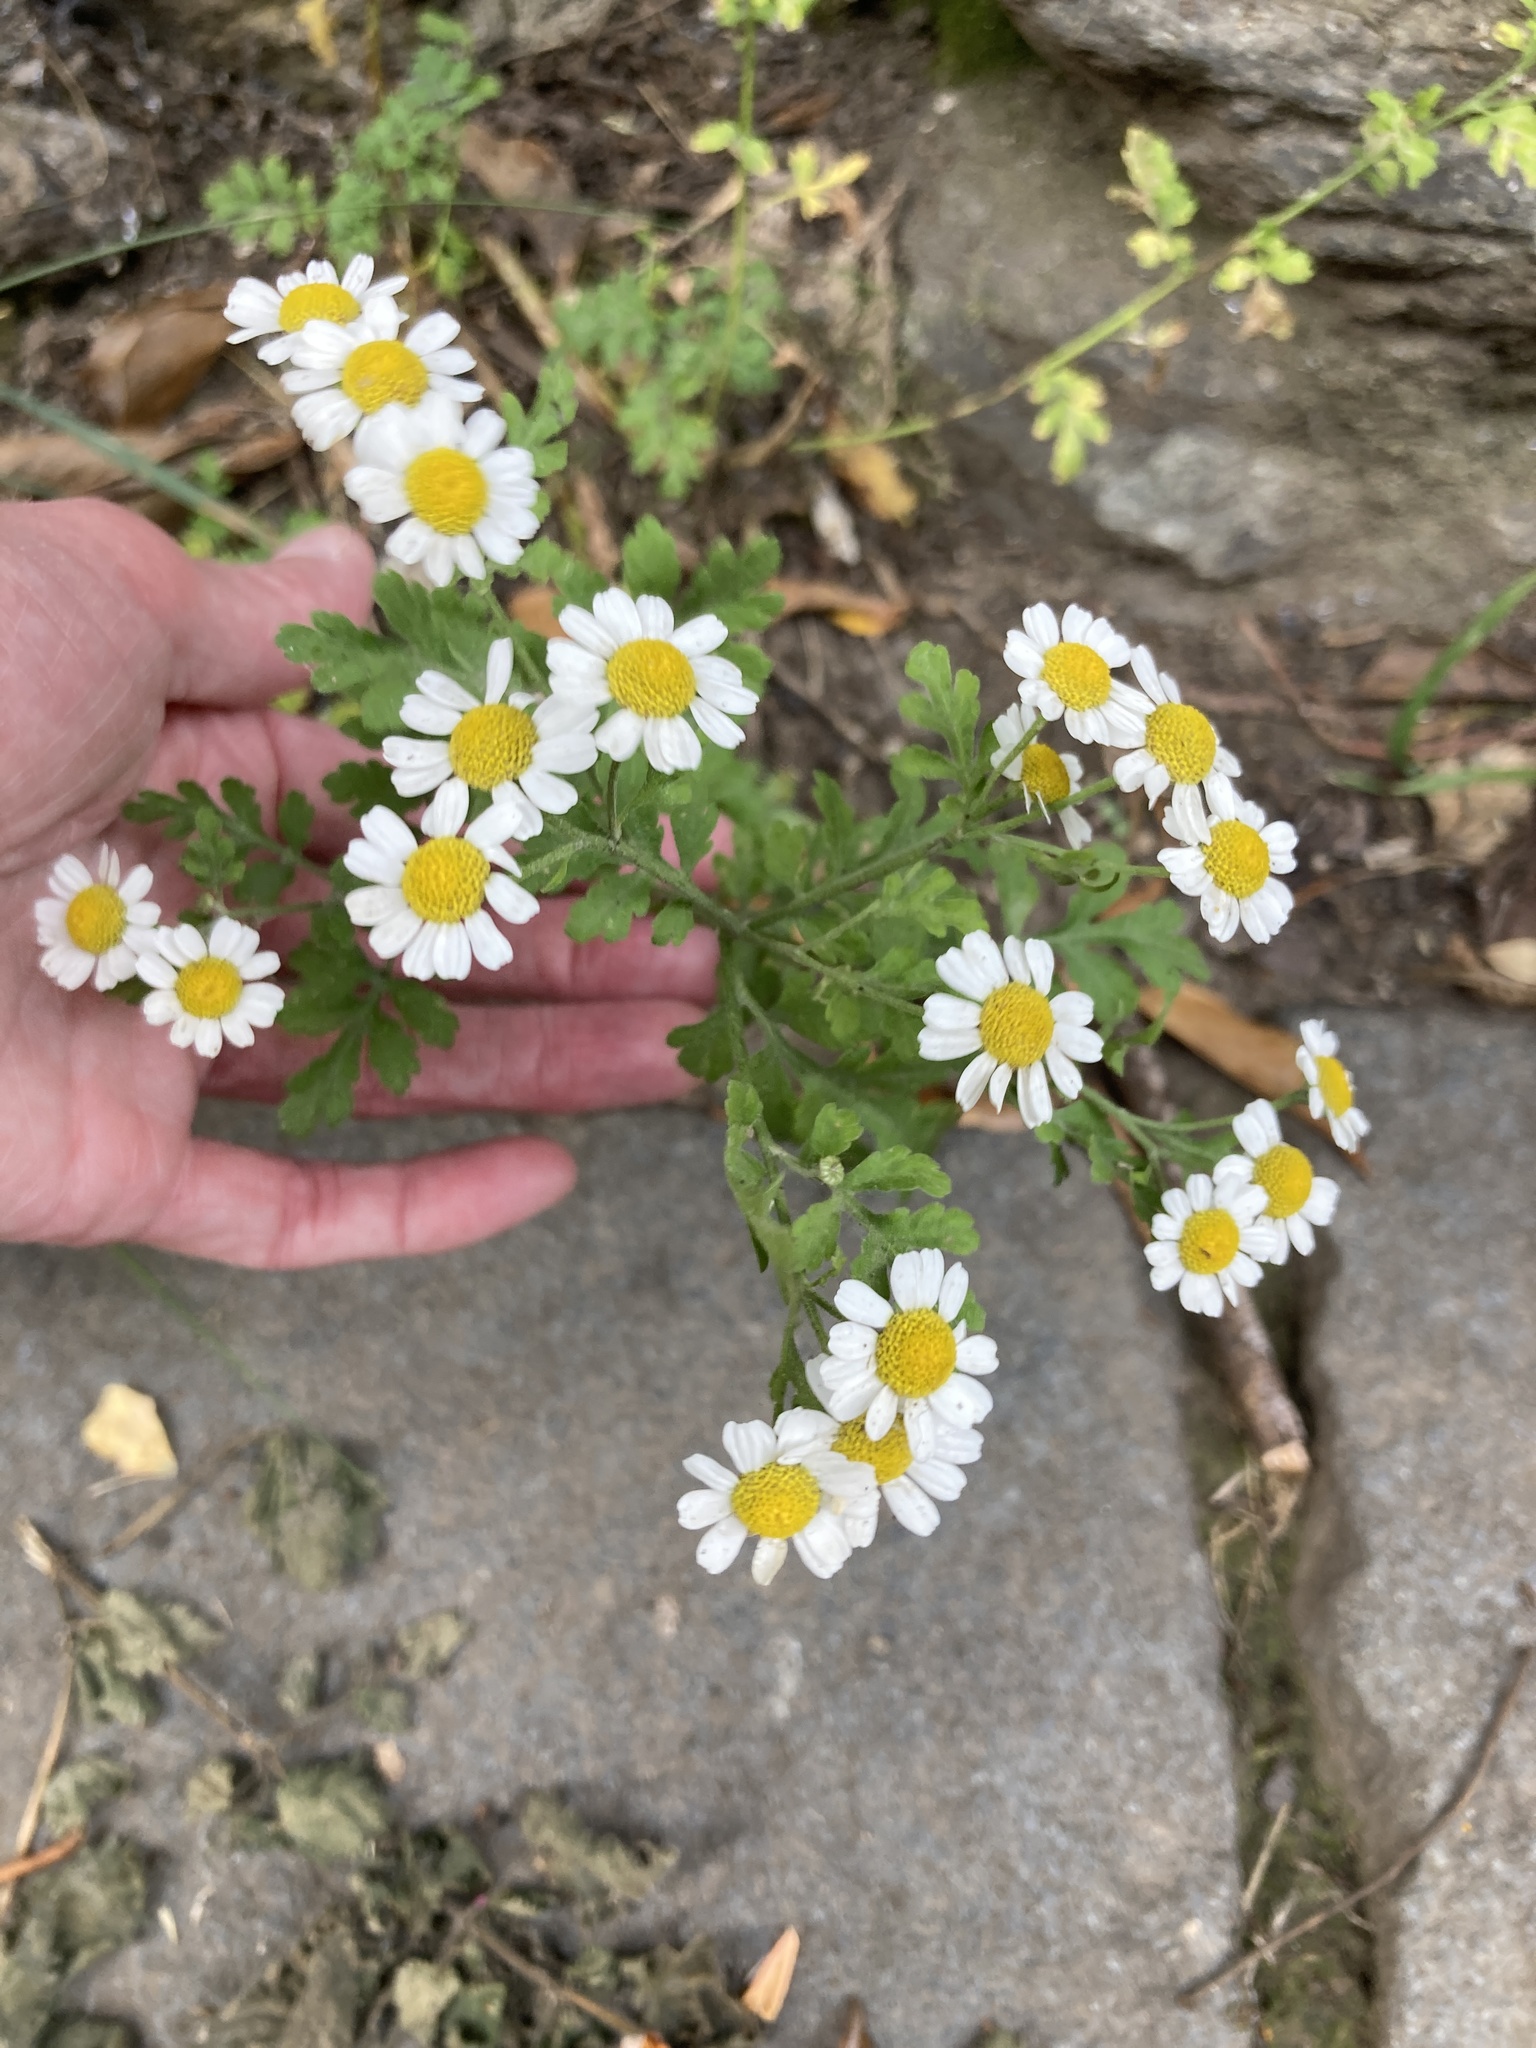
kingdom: Plantae
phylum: Tracheophyta
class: Magnoliopsida
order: Asterales
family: Asteraceae
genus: Tanacetum
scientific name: Tanacetum parthenium
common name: Feverfew
